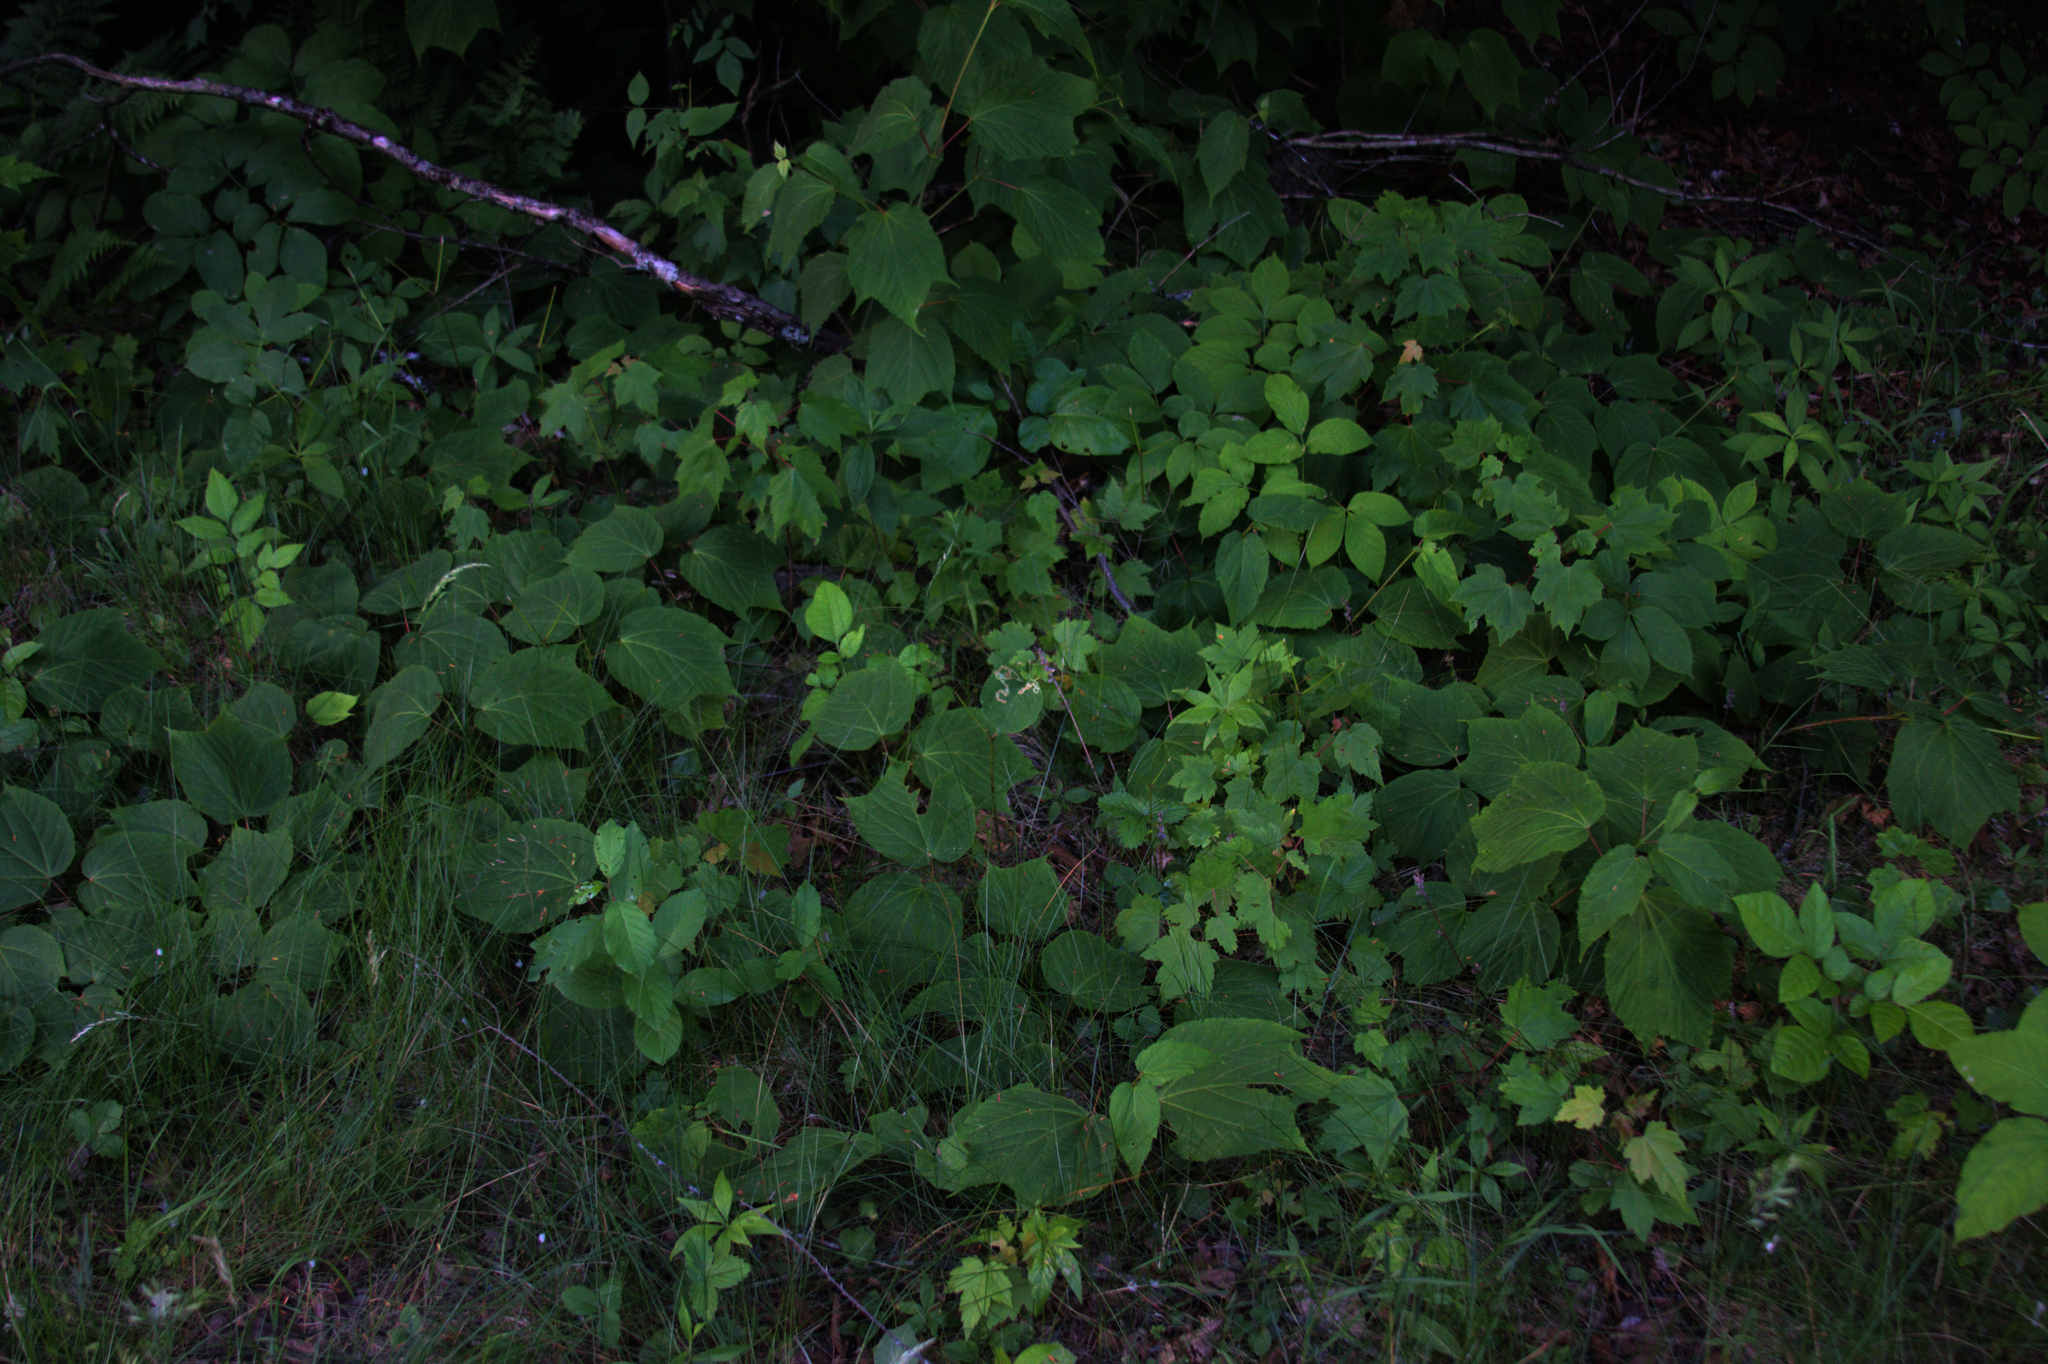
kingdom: Plantae
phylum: Tracheophyta
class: Magnoliopsida
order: Sapindales
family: Sapindaceae
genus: Acer
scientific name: Acer pensylvanicum
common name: Moosewood
